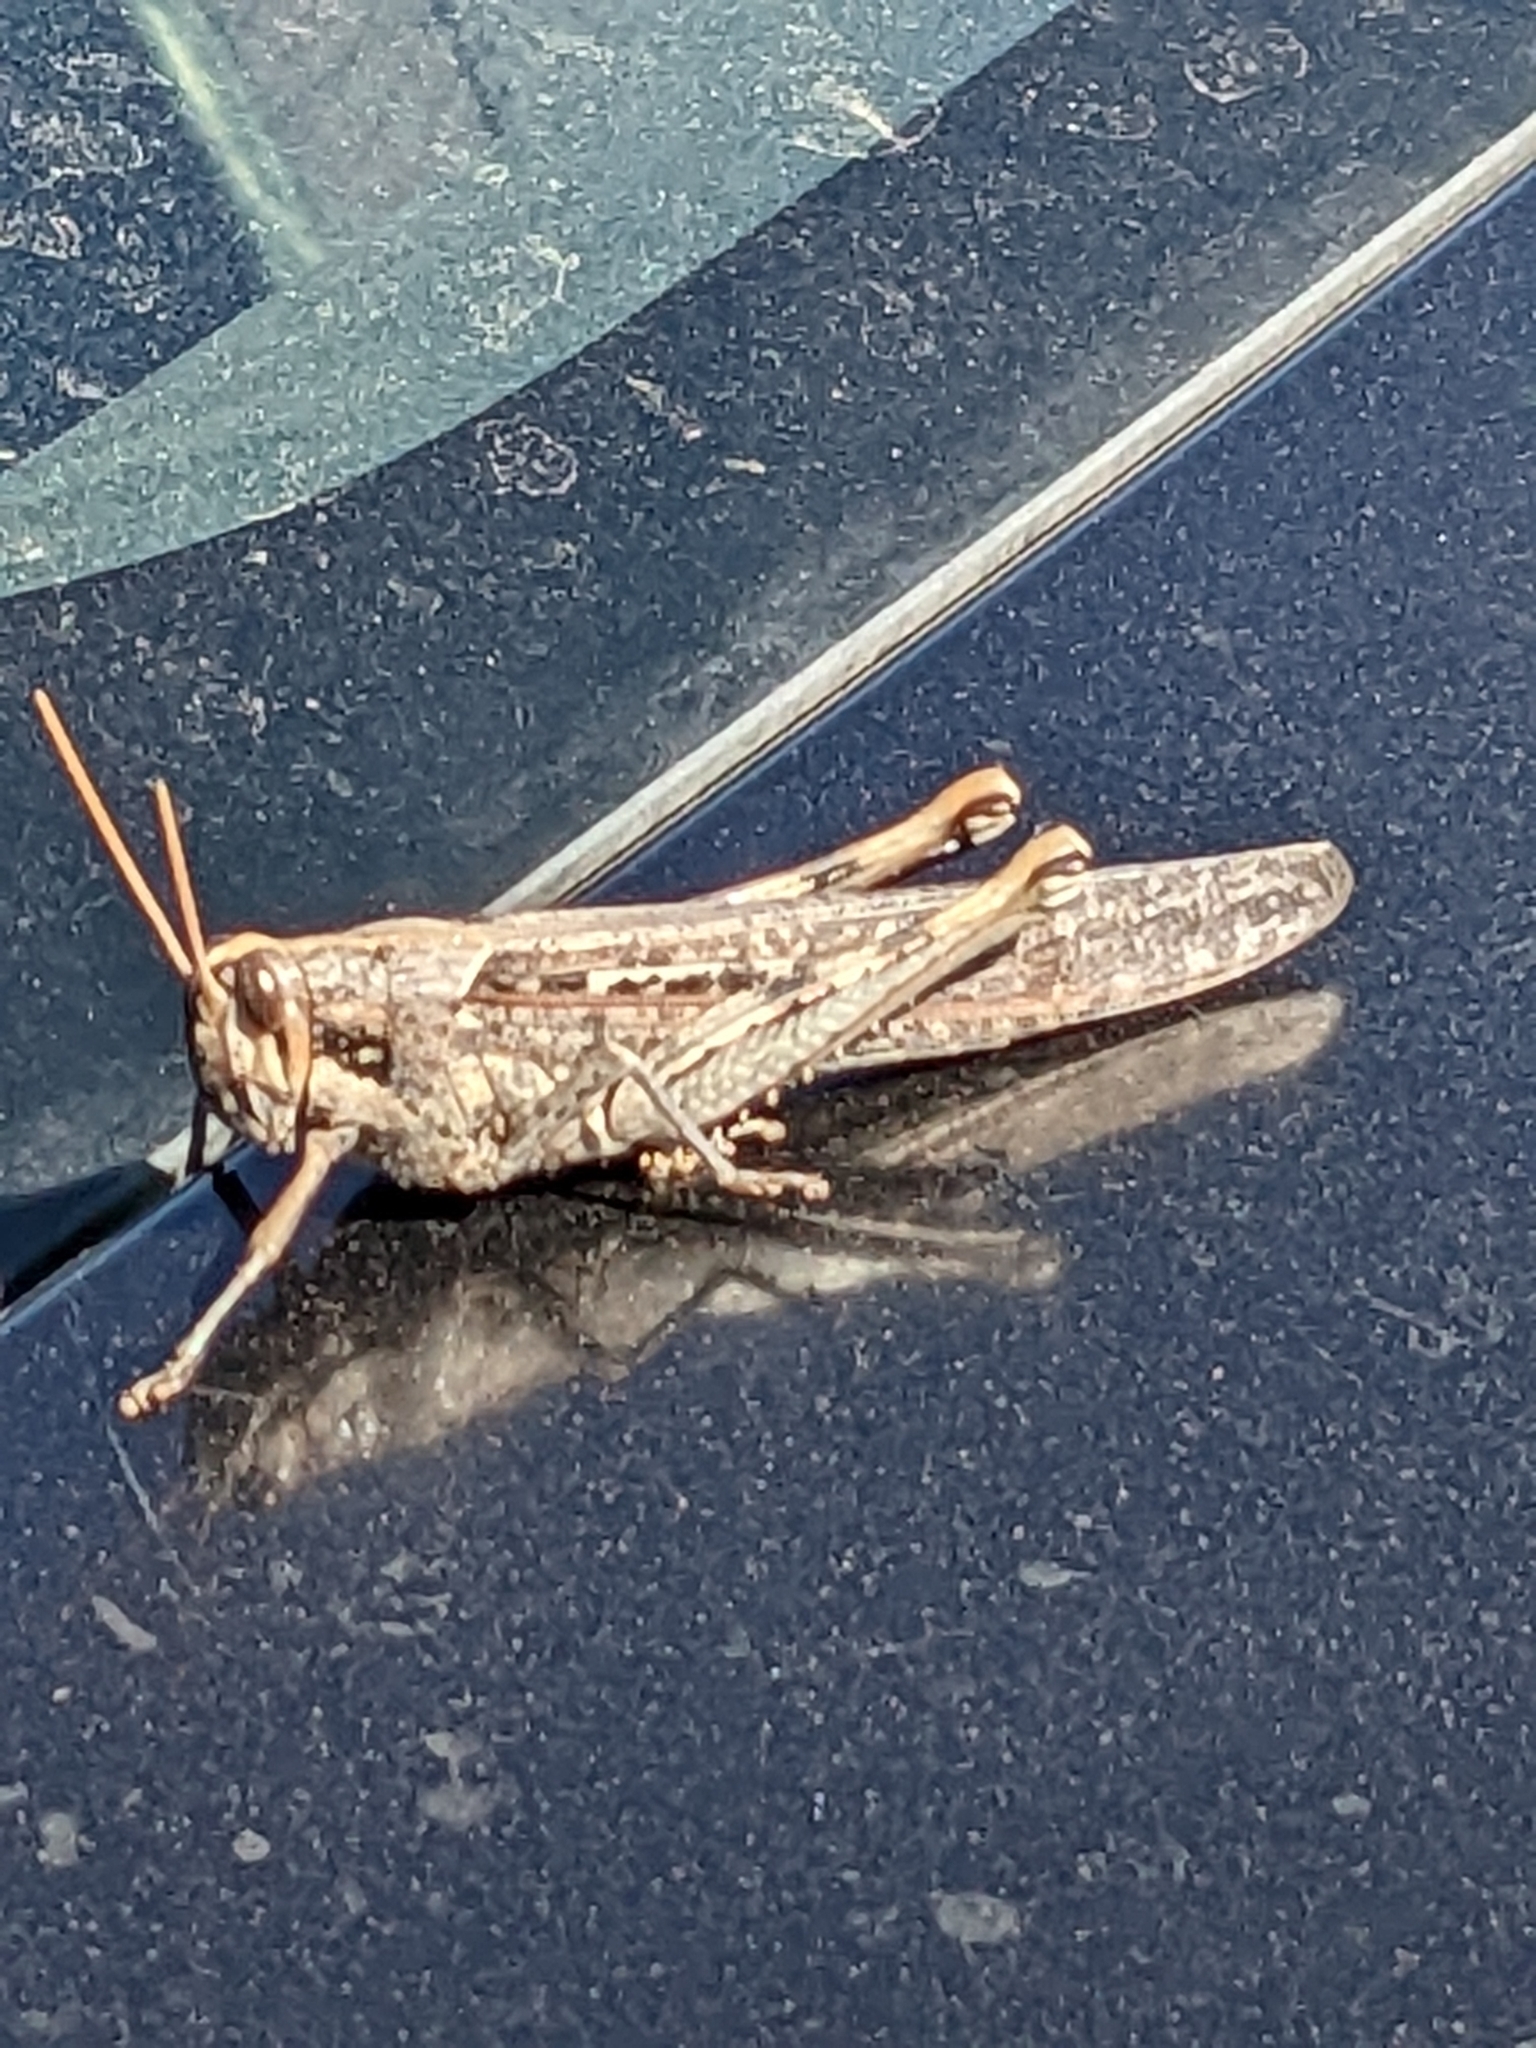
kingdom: Animalia
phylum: Arthropoda
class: Insecta
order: Orthoptera
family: Acrididae
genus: Schistocerca
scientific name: Schistocerca nitens
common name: Vagrant grasshopper
